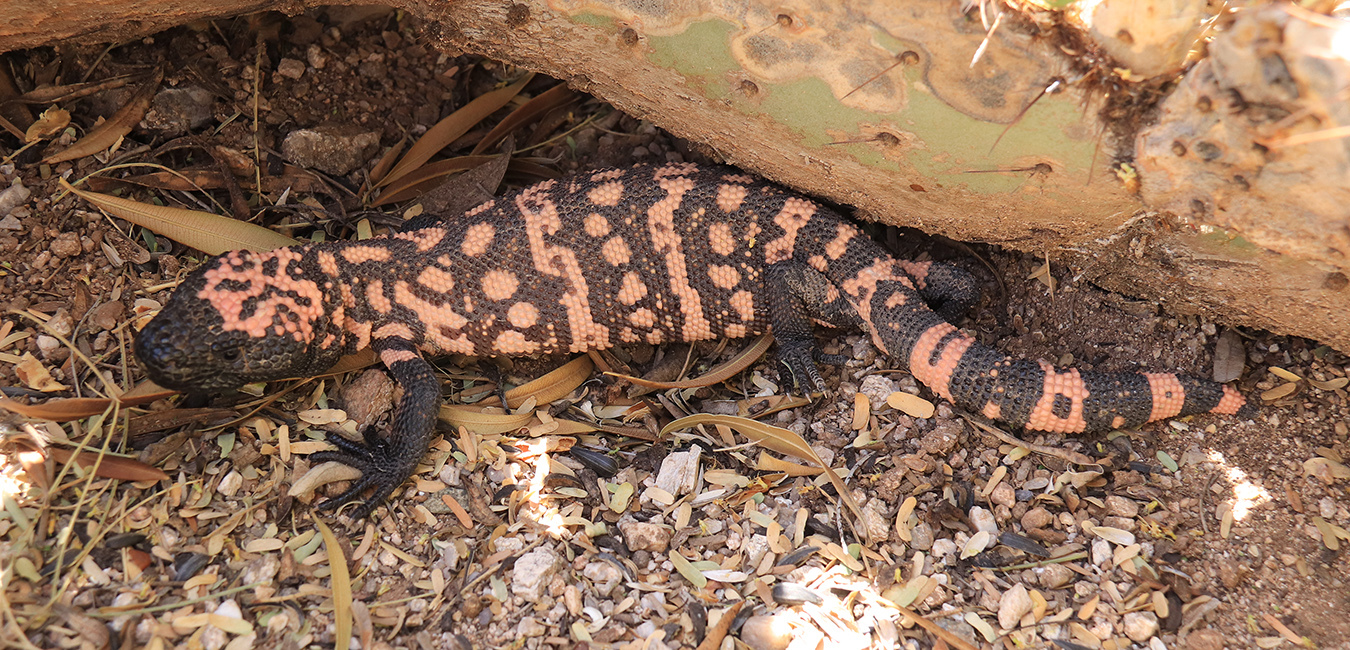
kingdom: Animalia
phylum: Chordata
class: Squamata
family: Helodermatidae
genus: Heloderma
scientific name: Heloderma suspectum
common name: Gila monster
